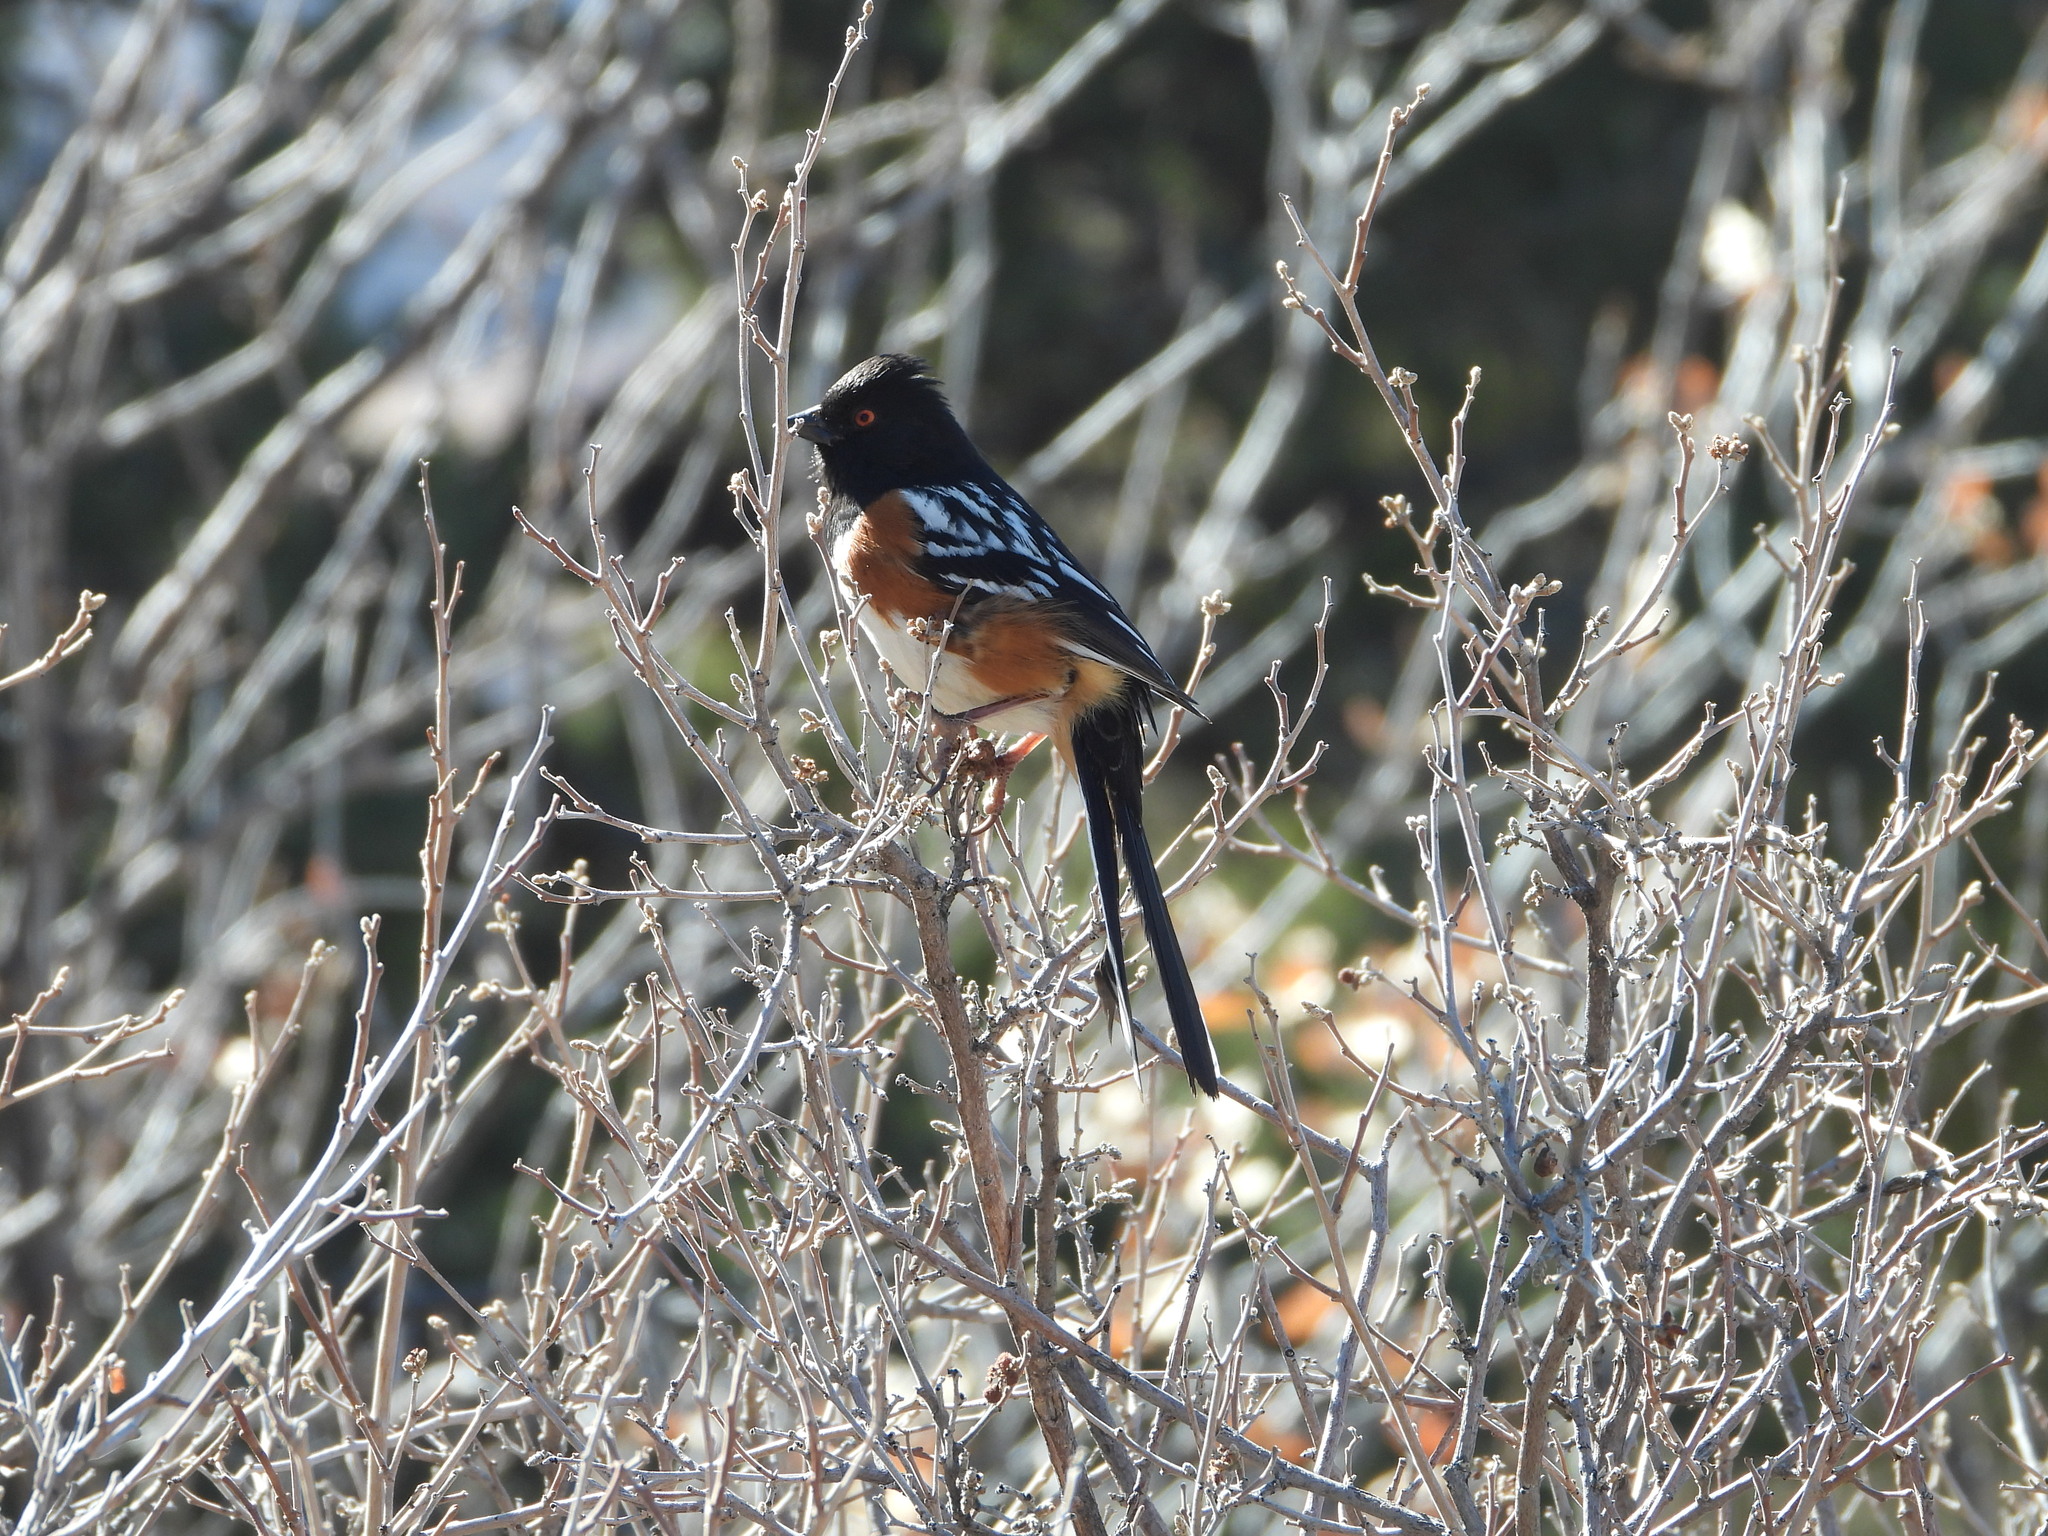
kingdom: Animalia
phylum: Chordata
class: Aves
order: Passeriformes
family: Passerellidae
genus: Pipilo
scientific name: Pipilo maculatus
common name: Spotted towhee
